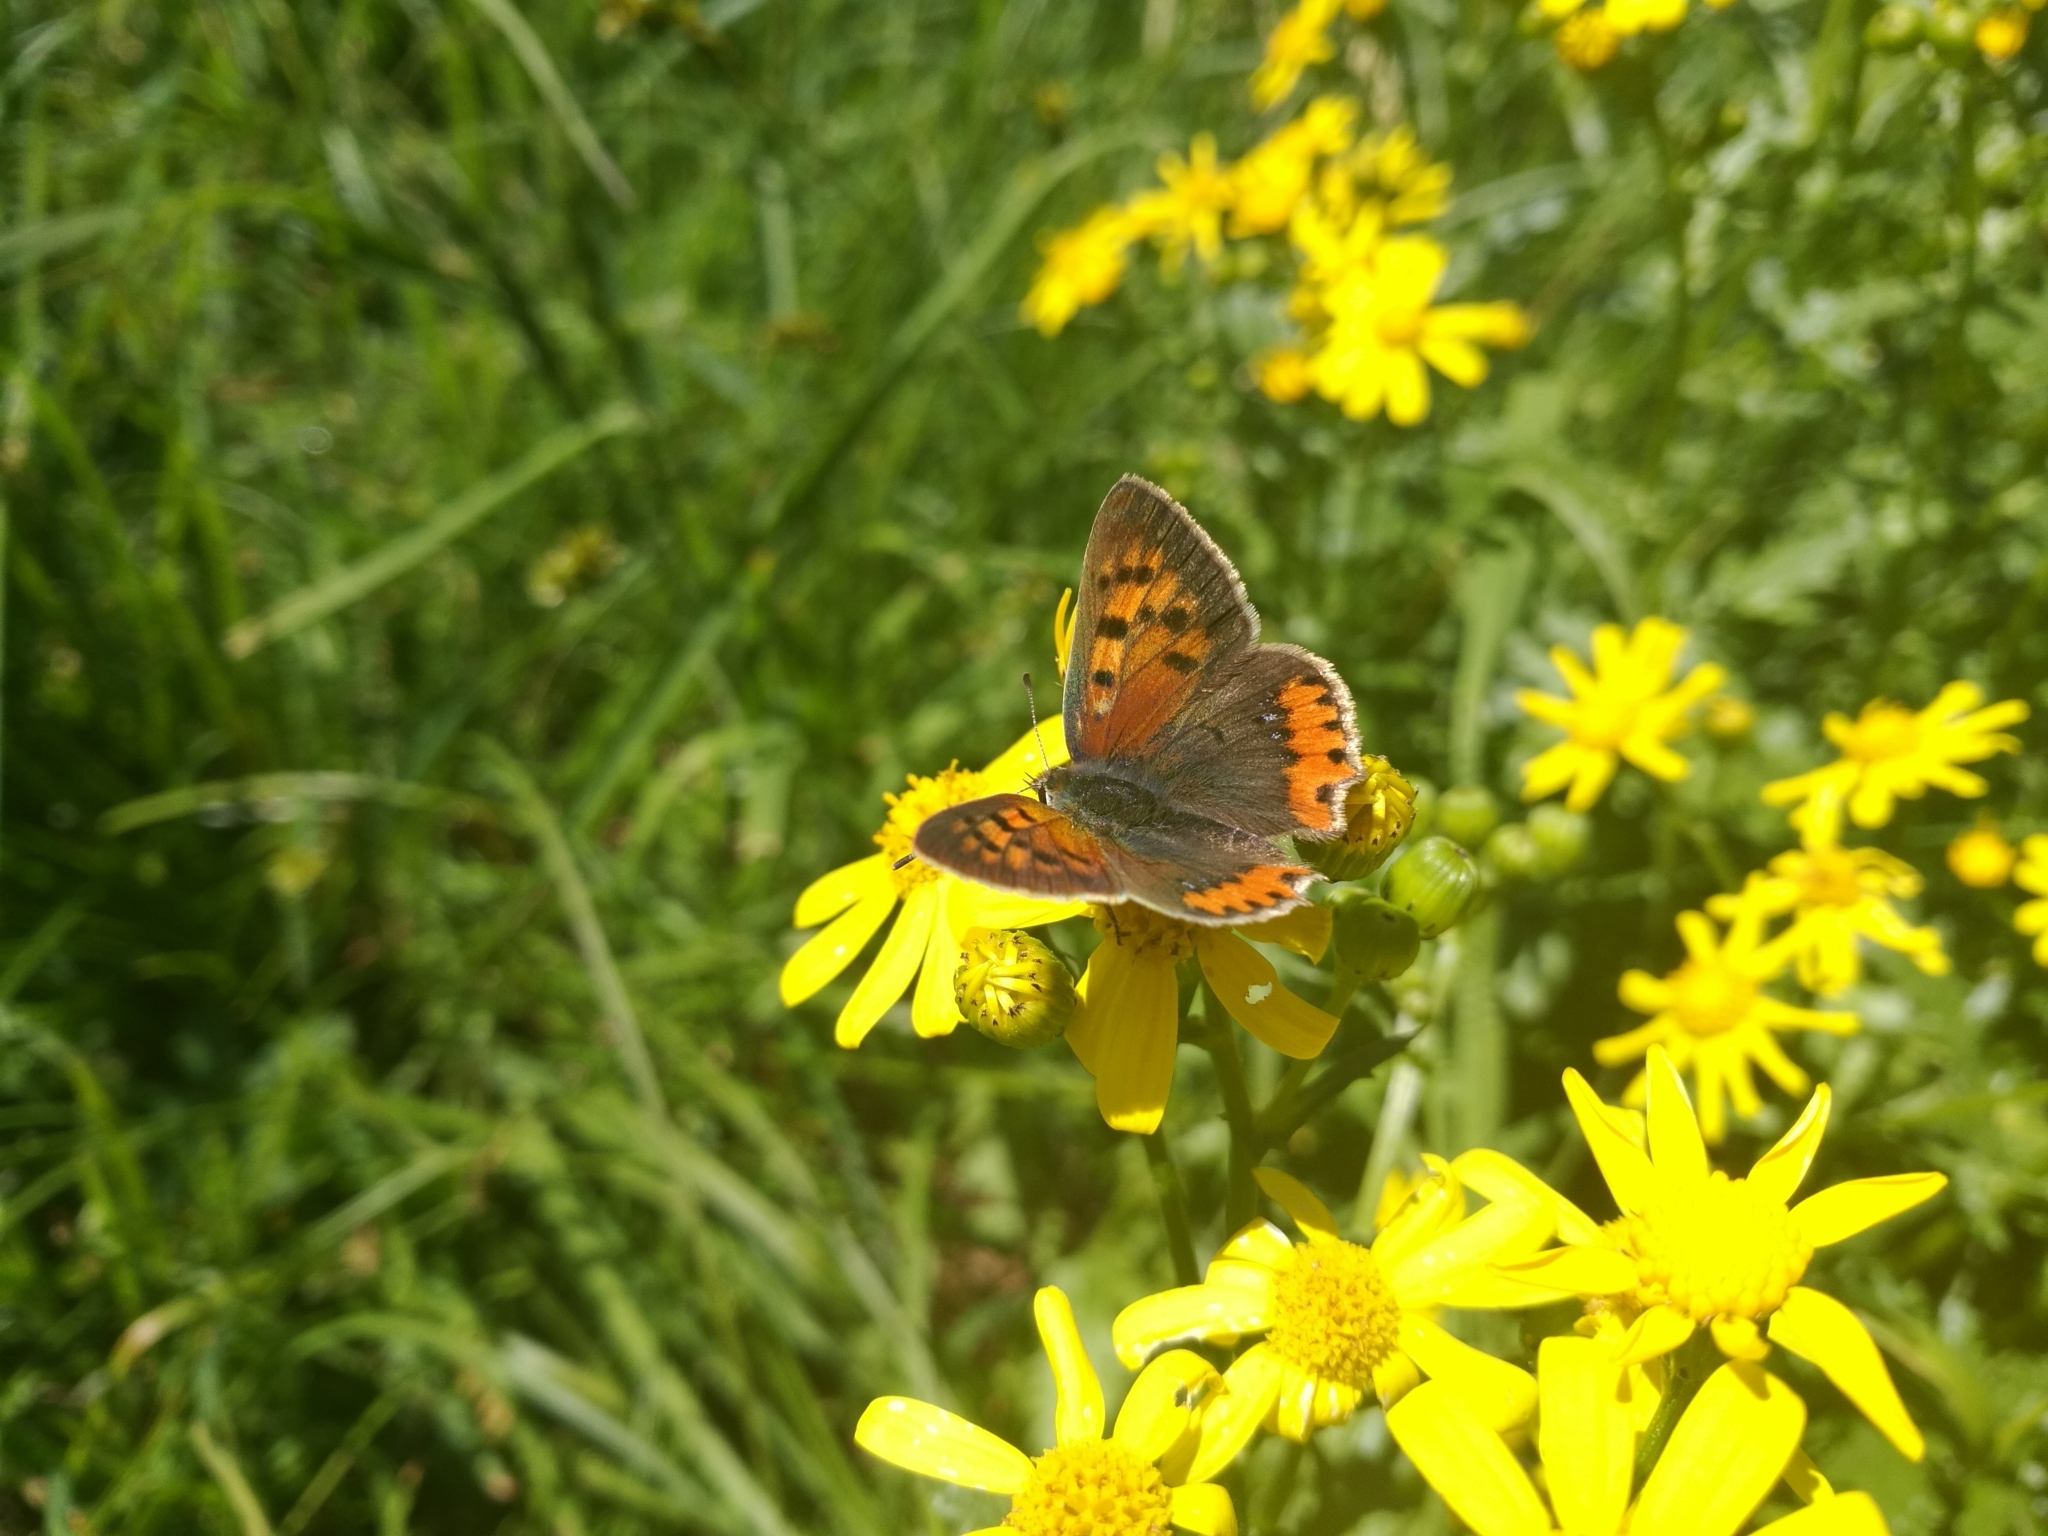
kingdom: Animalia
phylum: Arthropoda
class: Insecta
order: Lepidoptera
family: Lycaenidae
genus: Lycaena
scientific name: Lycaena phlaeas
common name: Small copper
